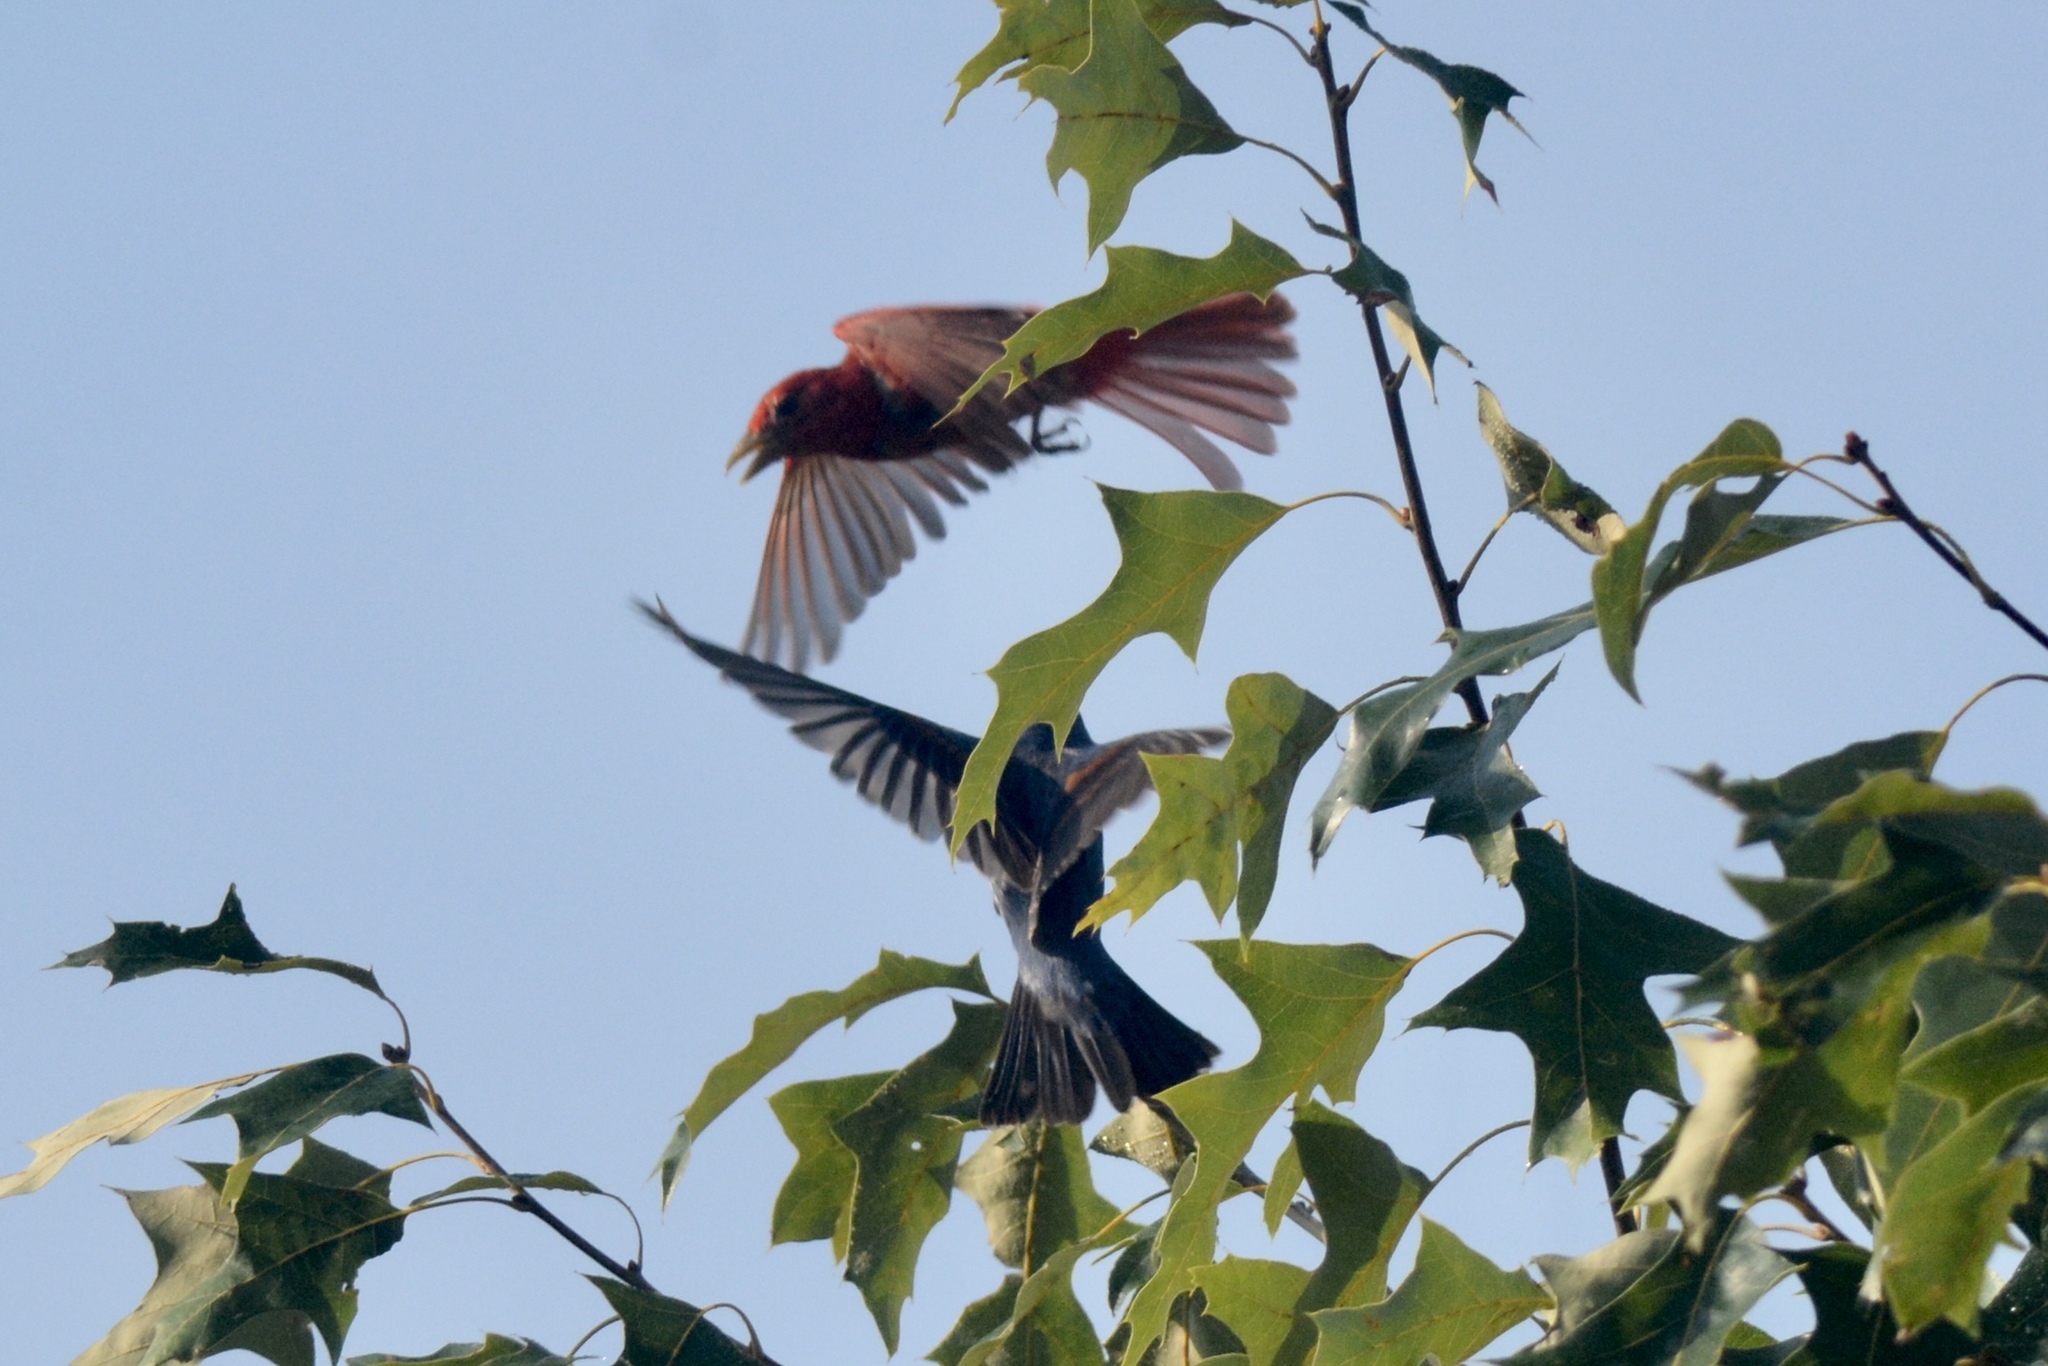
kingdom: Animalia
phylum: Chordata
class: Aves
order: Passeriformes
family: Cardinalidae
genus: Piranga
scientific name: Piranga rubra
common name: Summer tanager
